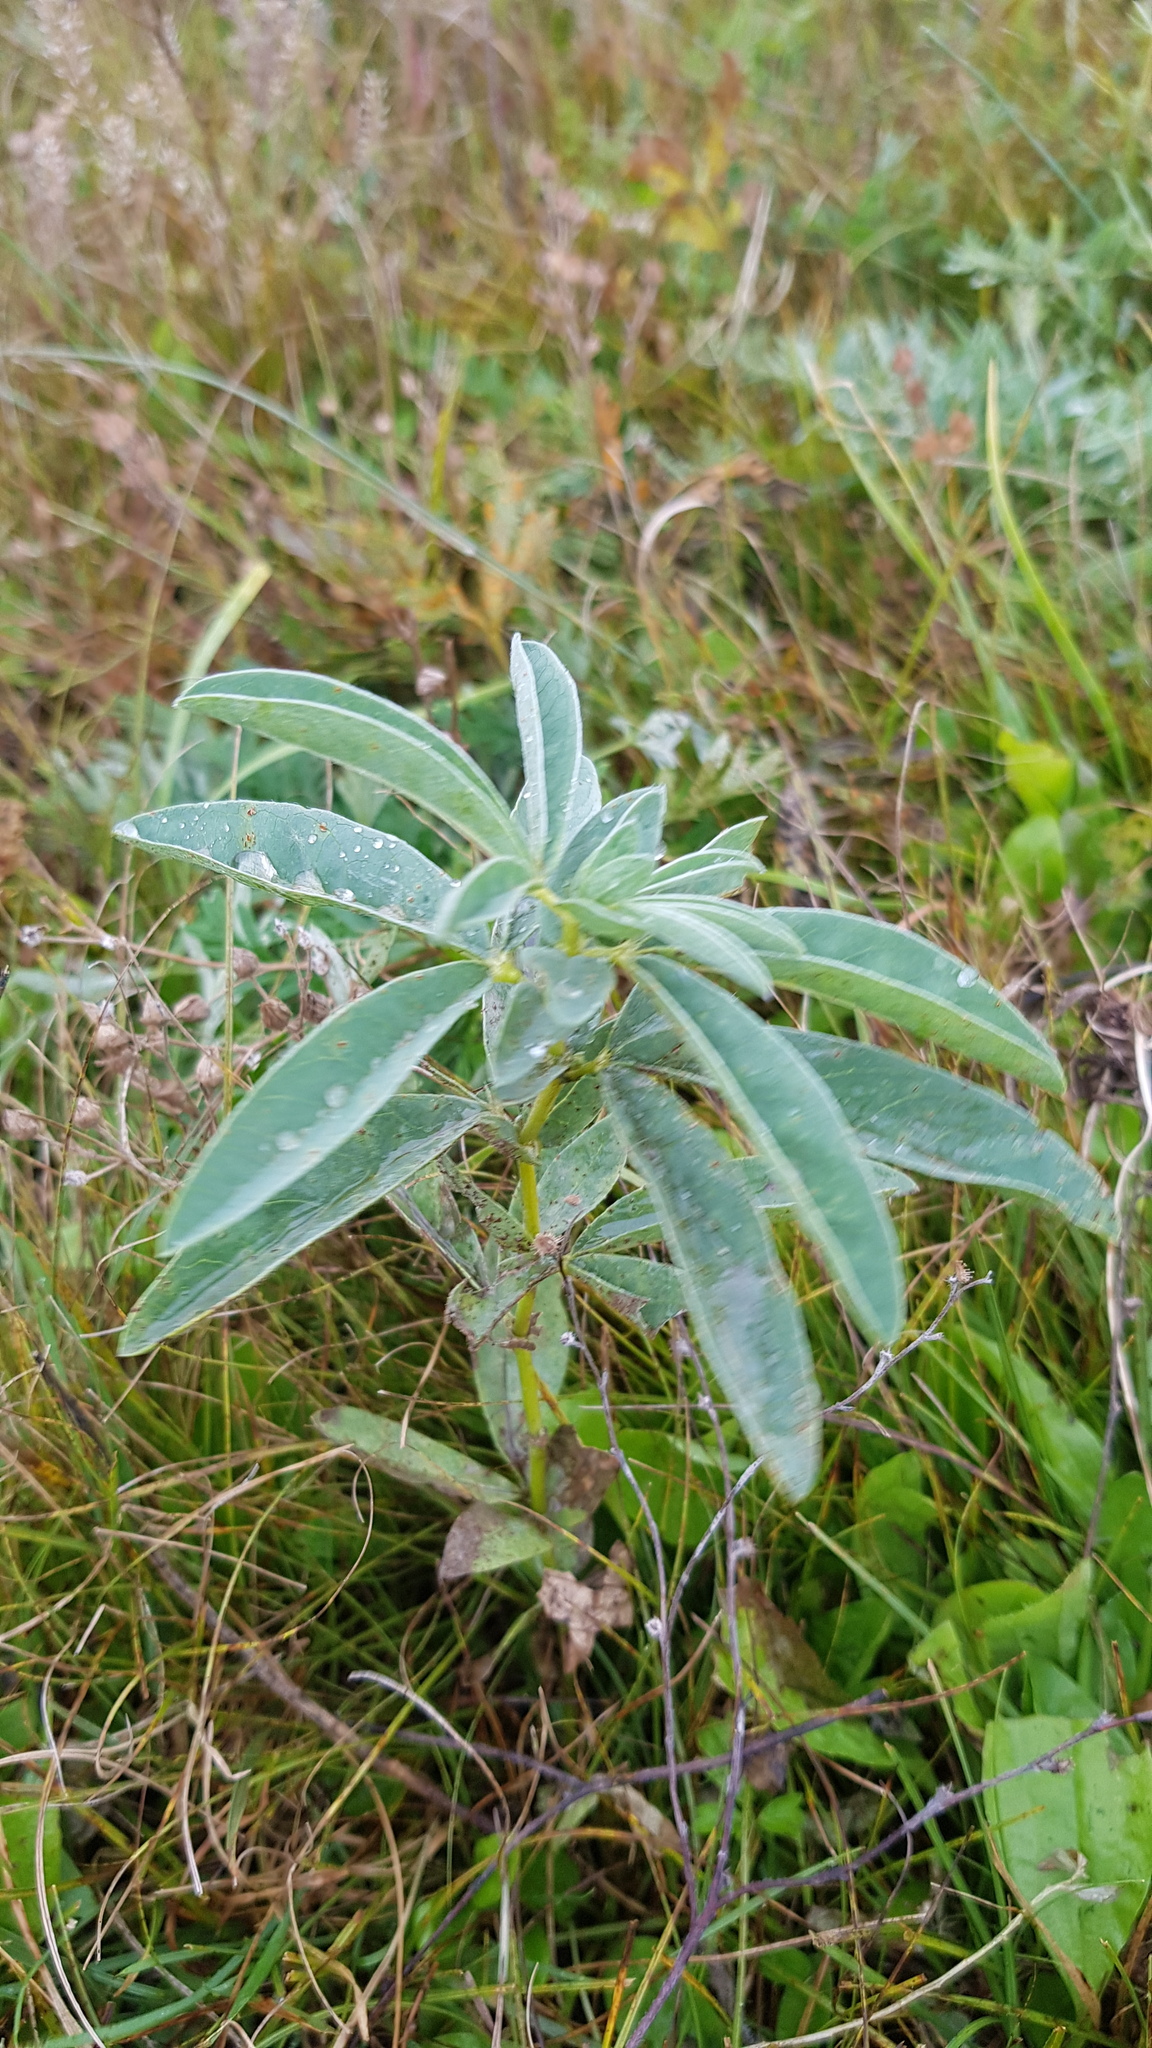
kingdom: Plantae
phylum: Tracheophyta
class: Magnoliopsida
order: Fabales
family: Fabaceae
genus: Thermopsis
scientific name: Thermopsis lanceolata
